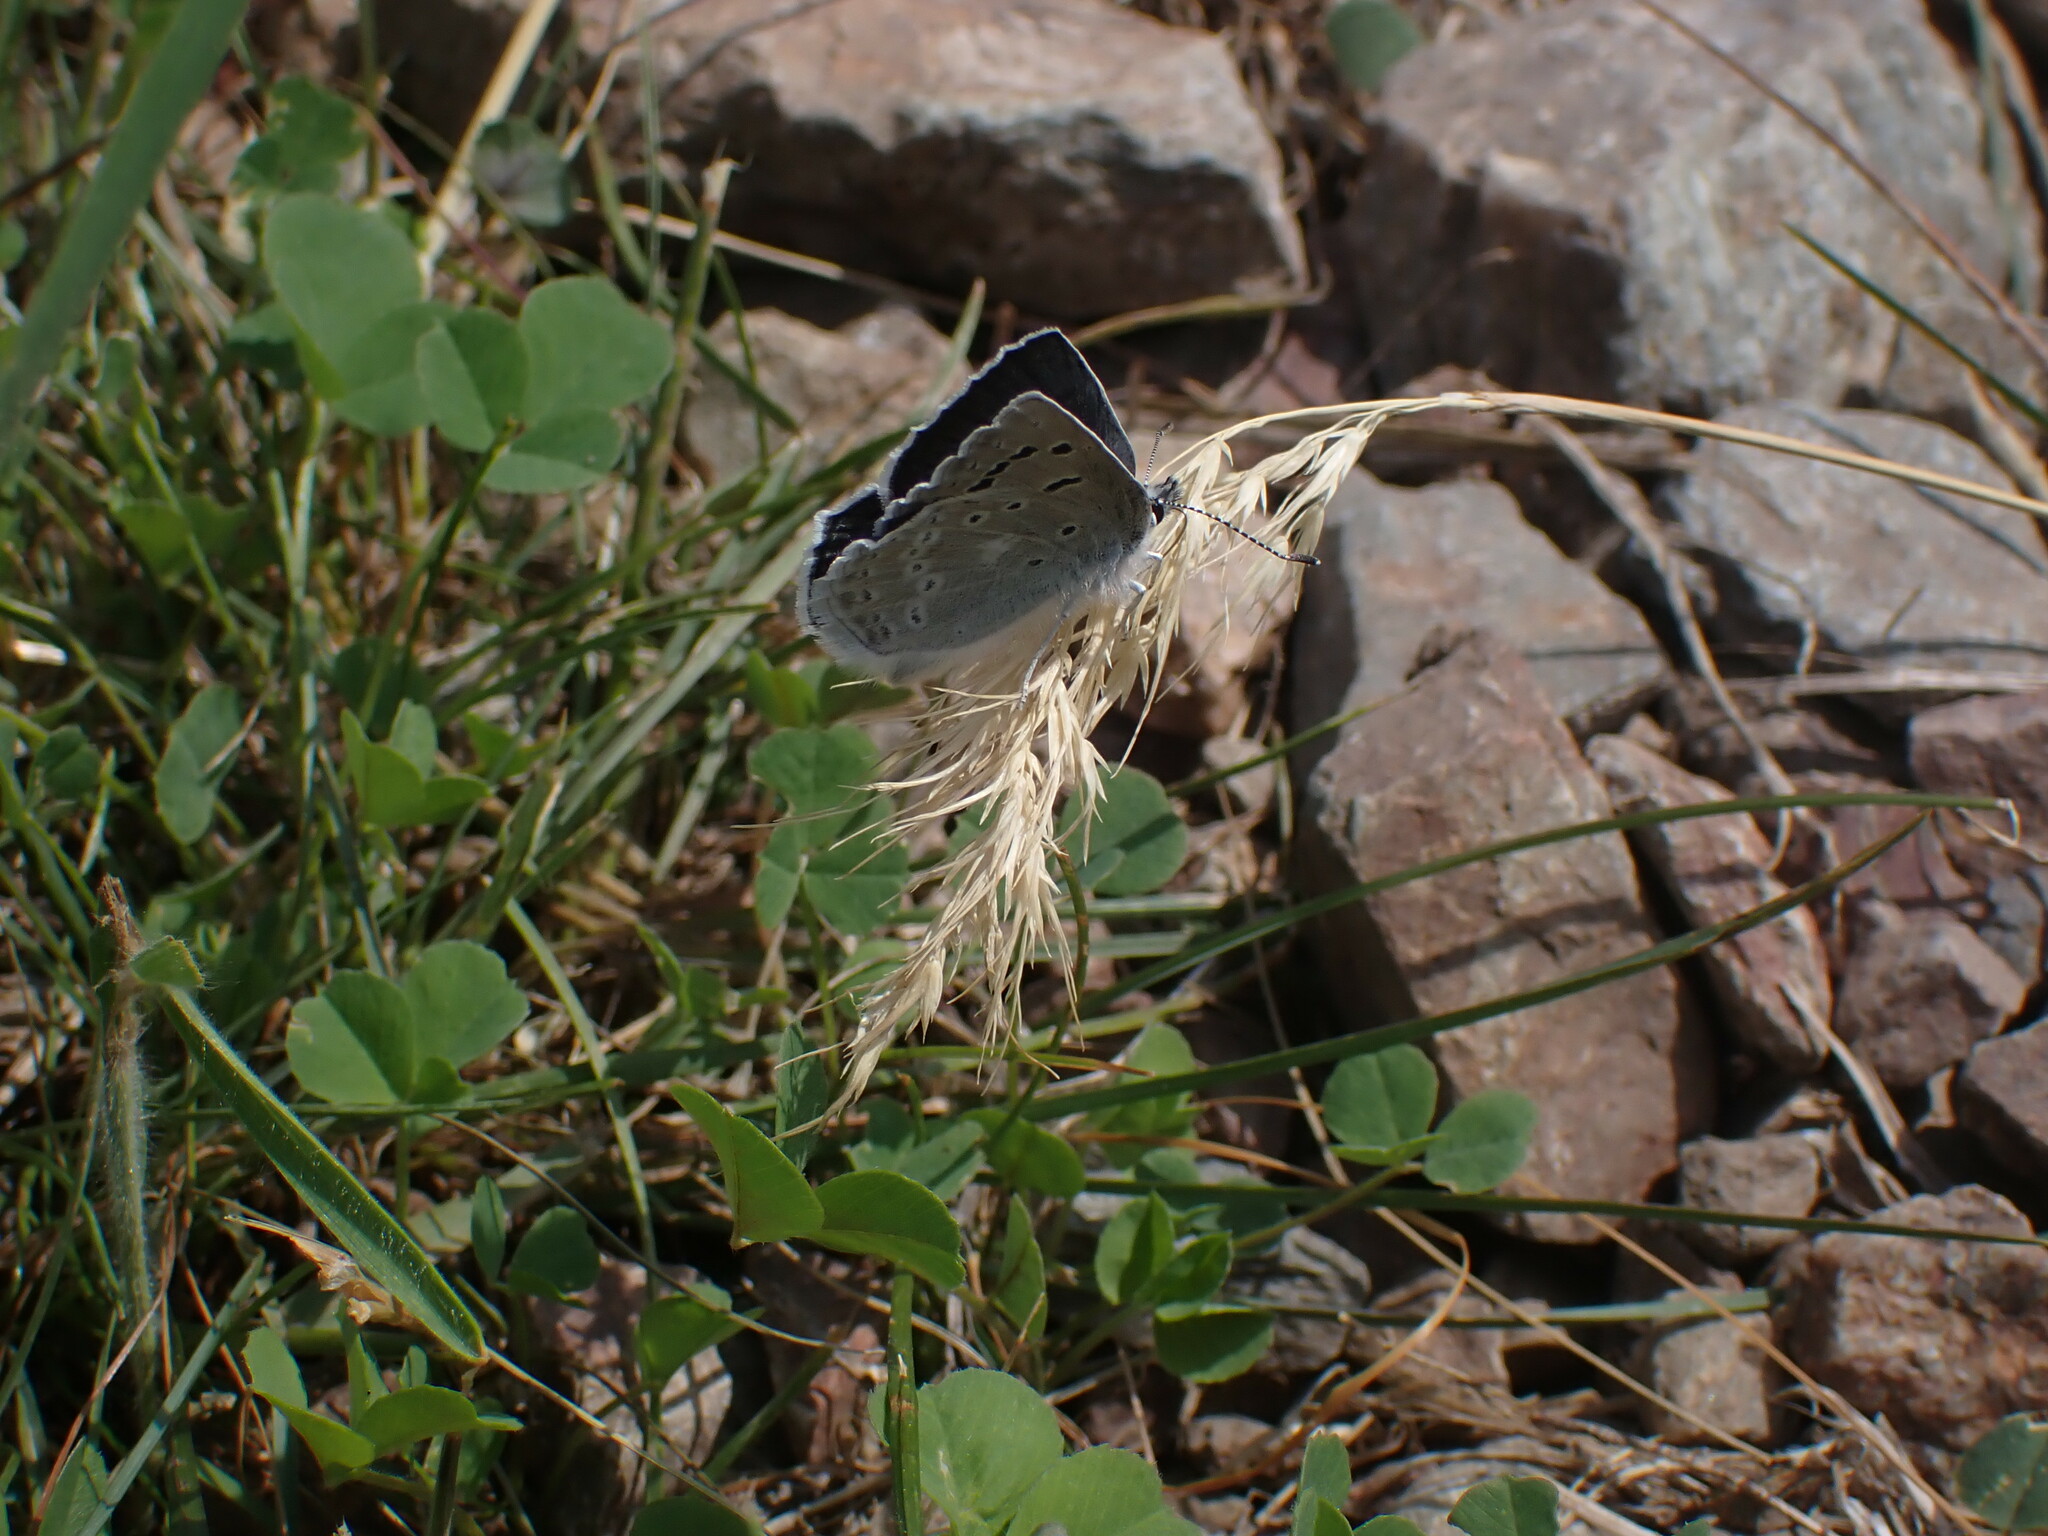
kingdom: Animalia
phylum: Arthropoda
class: Insecta
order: Lepidoptera
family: Lycaenidae
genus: Icaricia
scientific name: Icaricia icarioides
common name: Boisduval's blue
